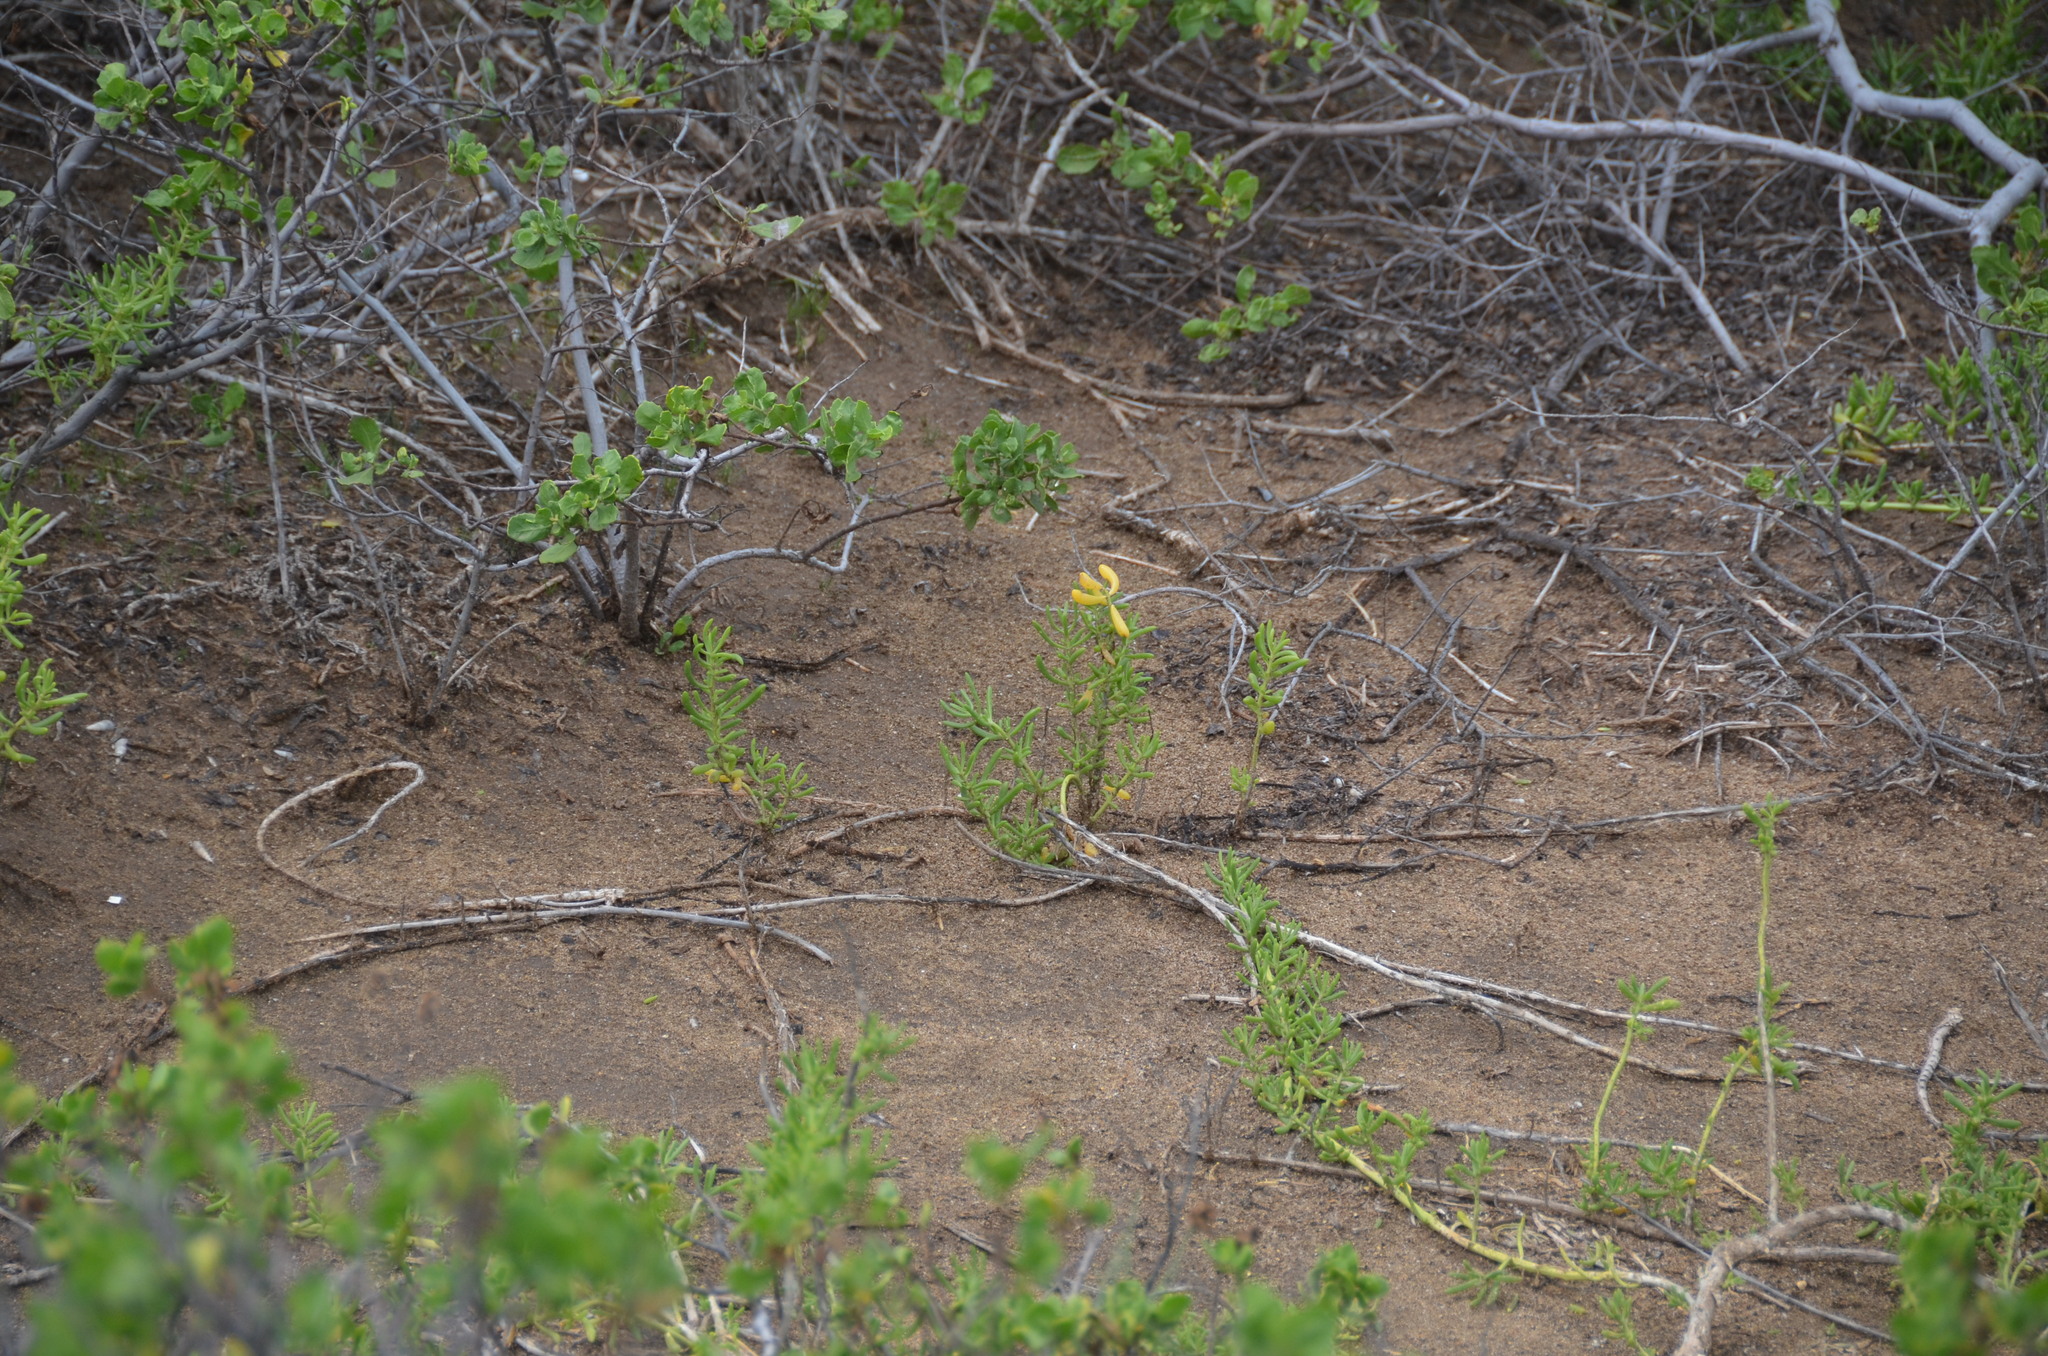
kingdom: Plantae
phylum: Tracheophyta
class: Magnoliopsida
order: Brassicales
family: Bataceae
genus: Batis
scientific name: Batis maritima
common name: Turtleweed
